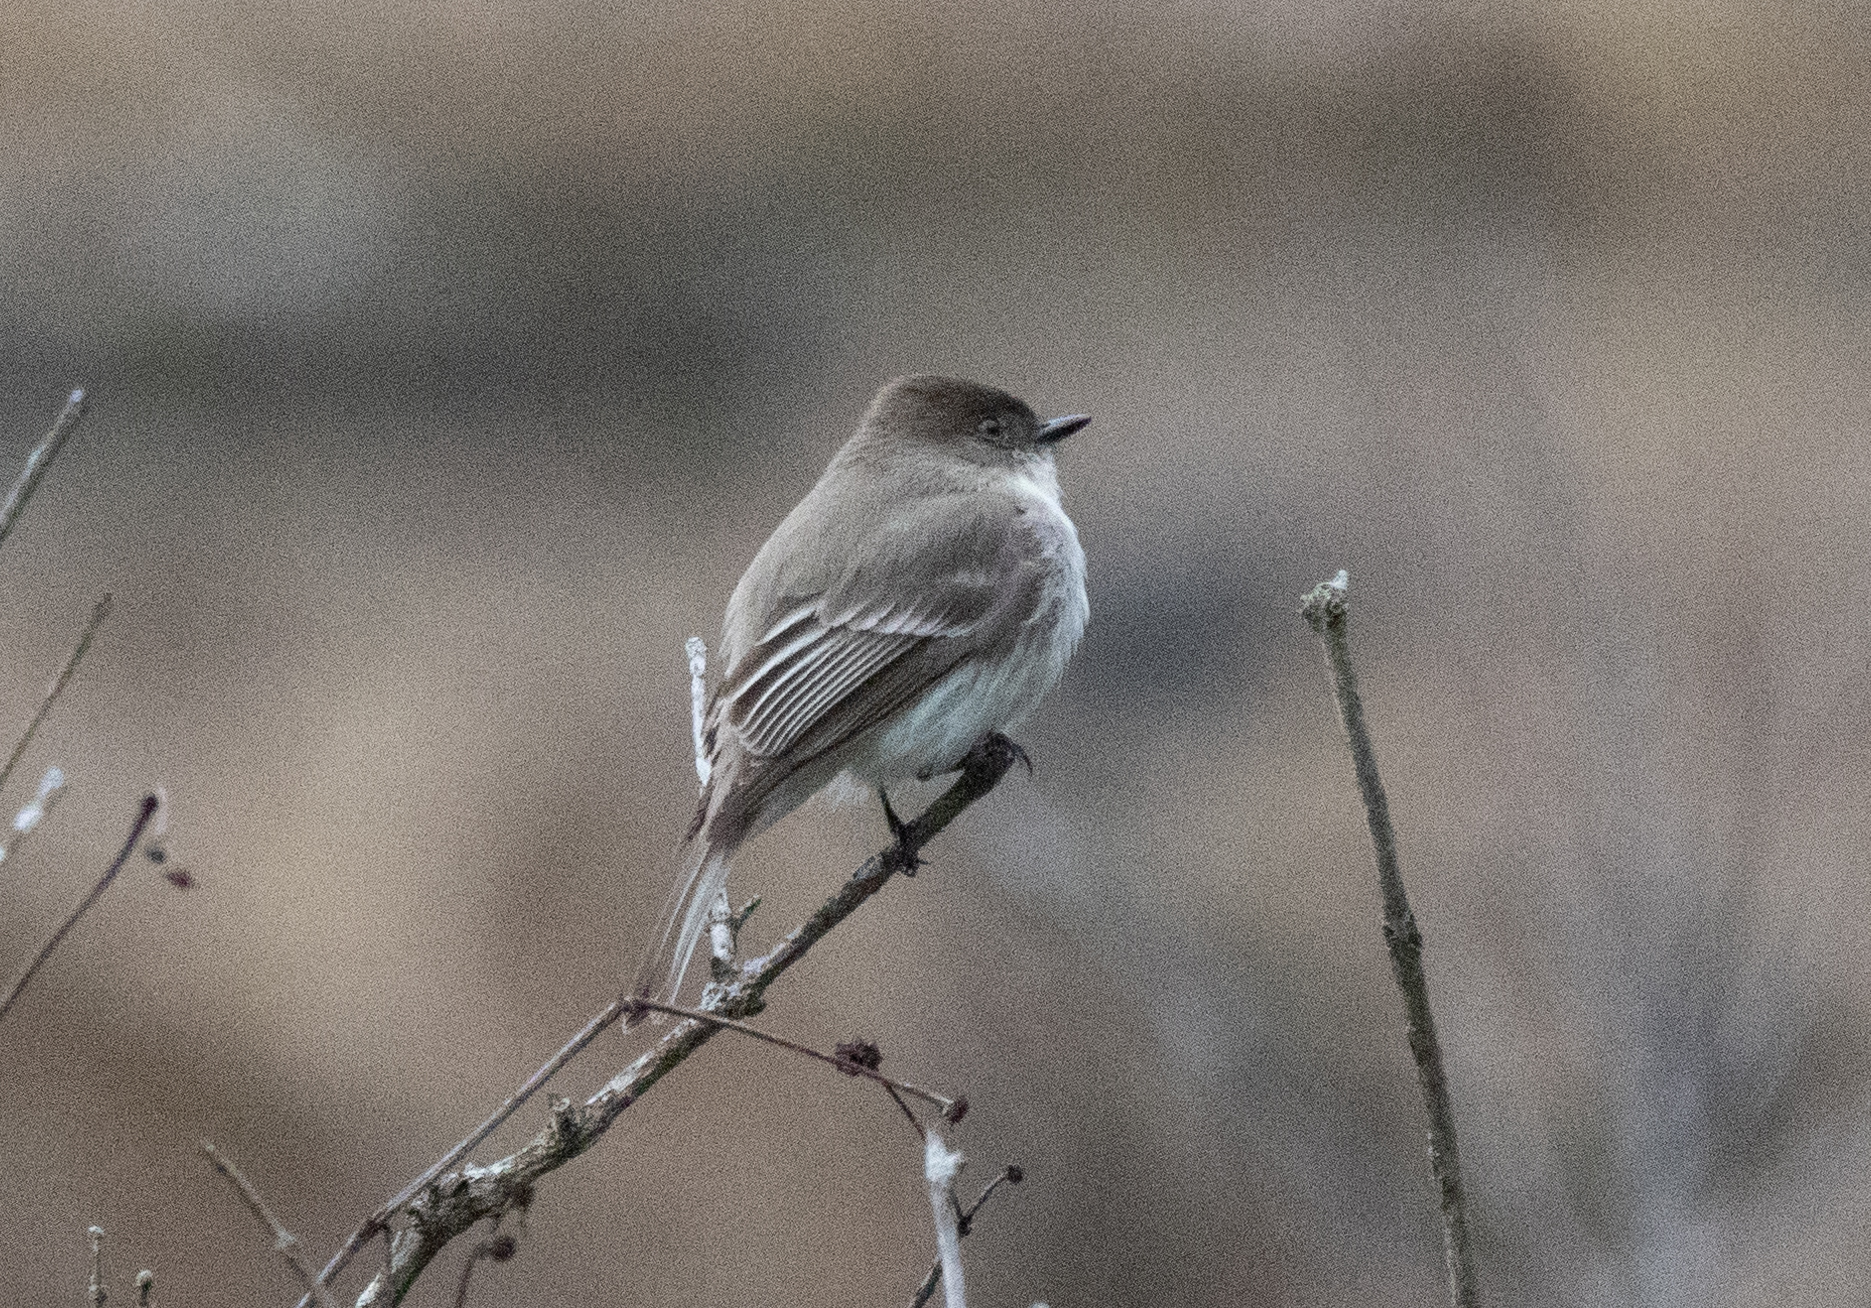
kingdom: Animalia
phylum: Chordata
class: Aves
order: Passeriformes
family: Tyrannidae
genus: Sayornis
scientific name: Sayornis phoebe
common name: Eastern phoebe
